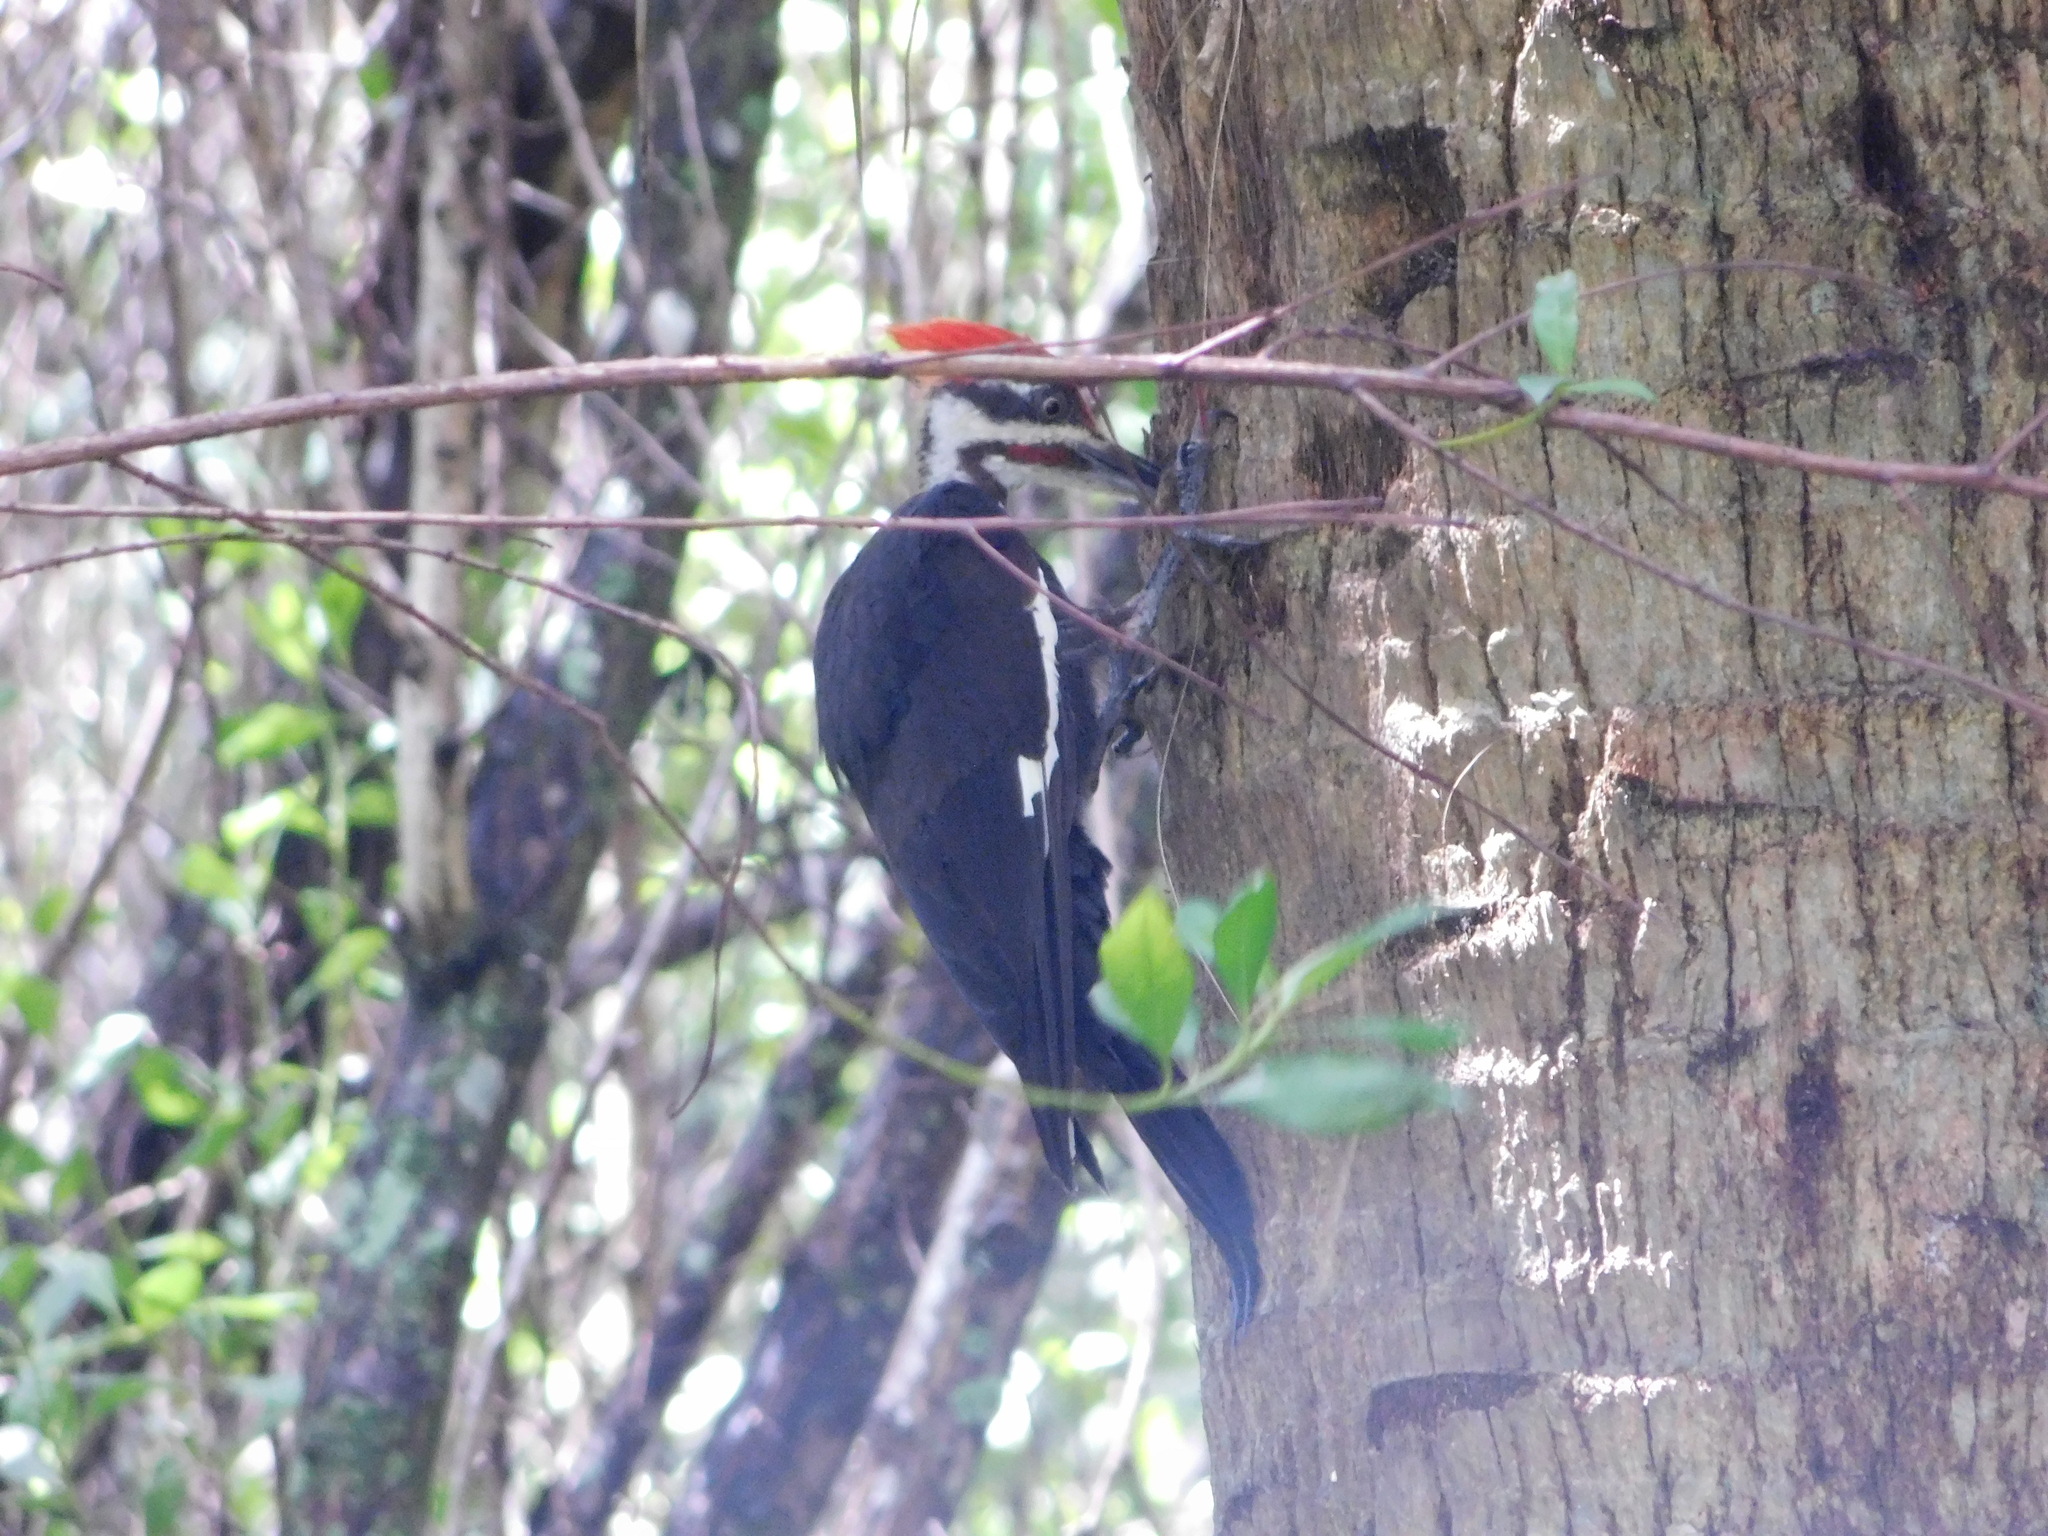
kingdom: Animalia
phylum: Chordata
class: Aves
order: Piciformes
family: Picidae
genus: Dryocopus
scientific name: Dryocopus pileatus
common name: Pileated woodpecker
